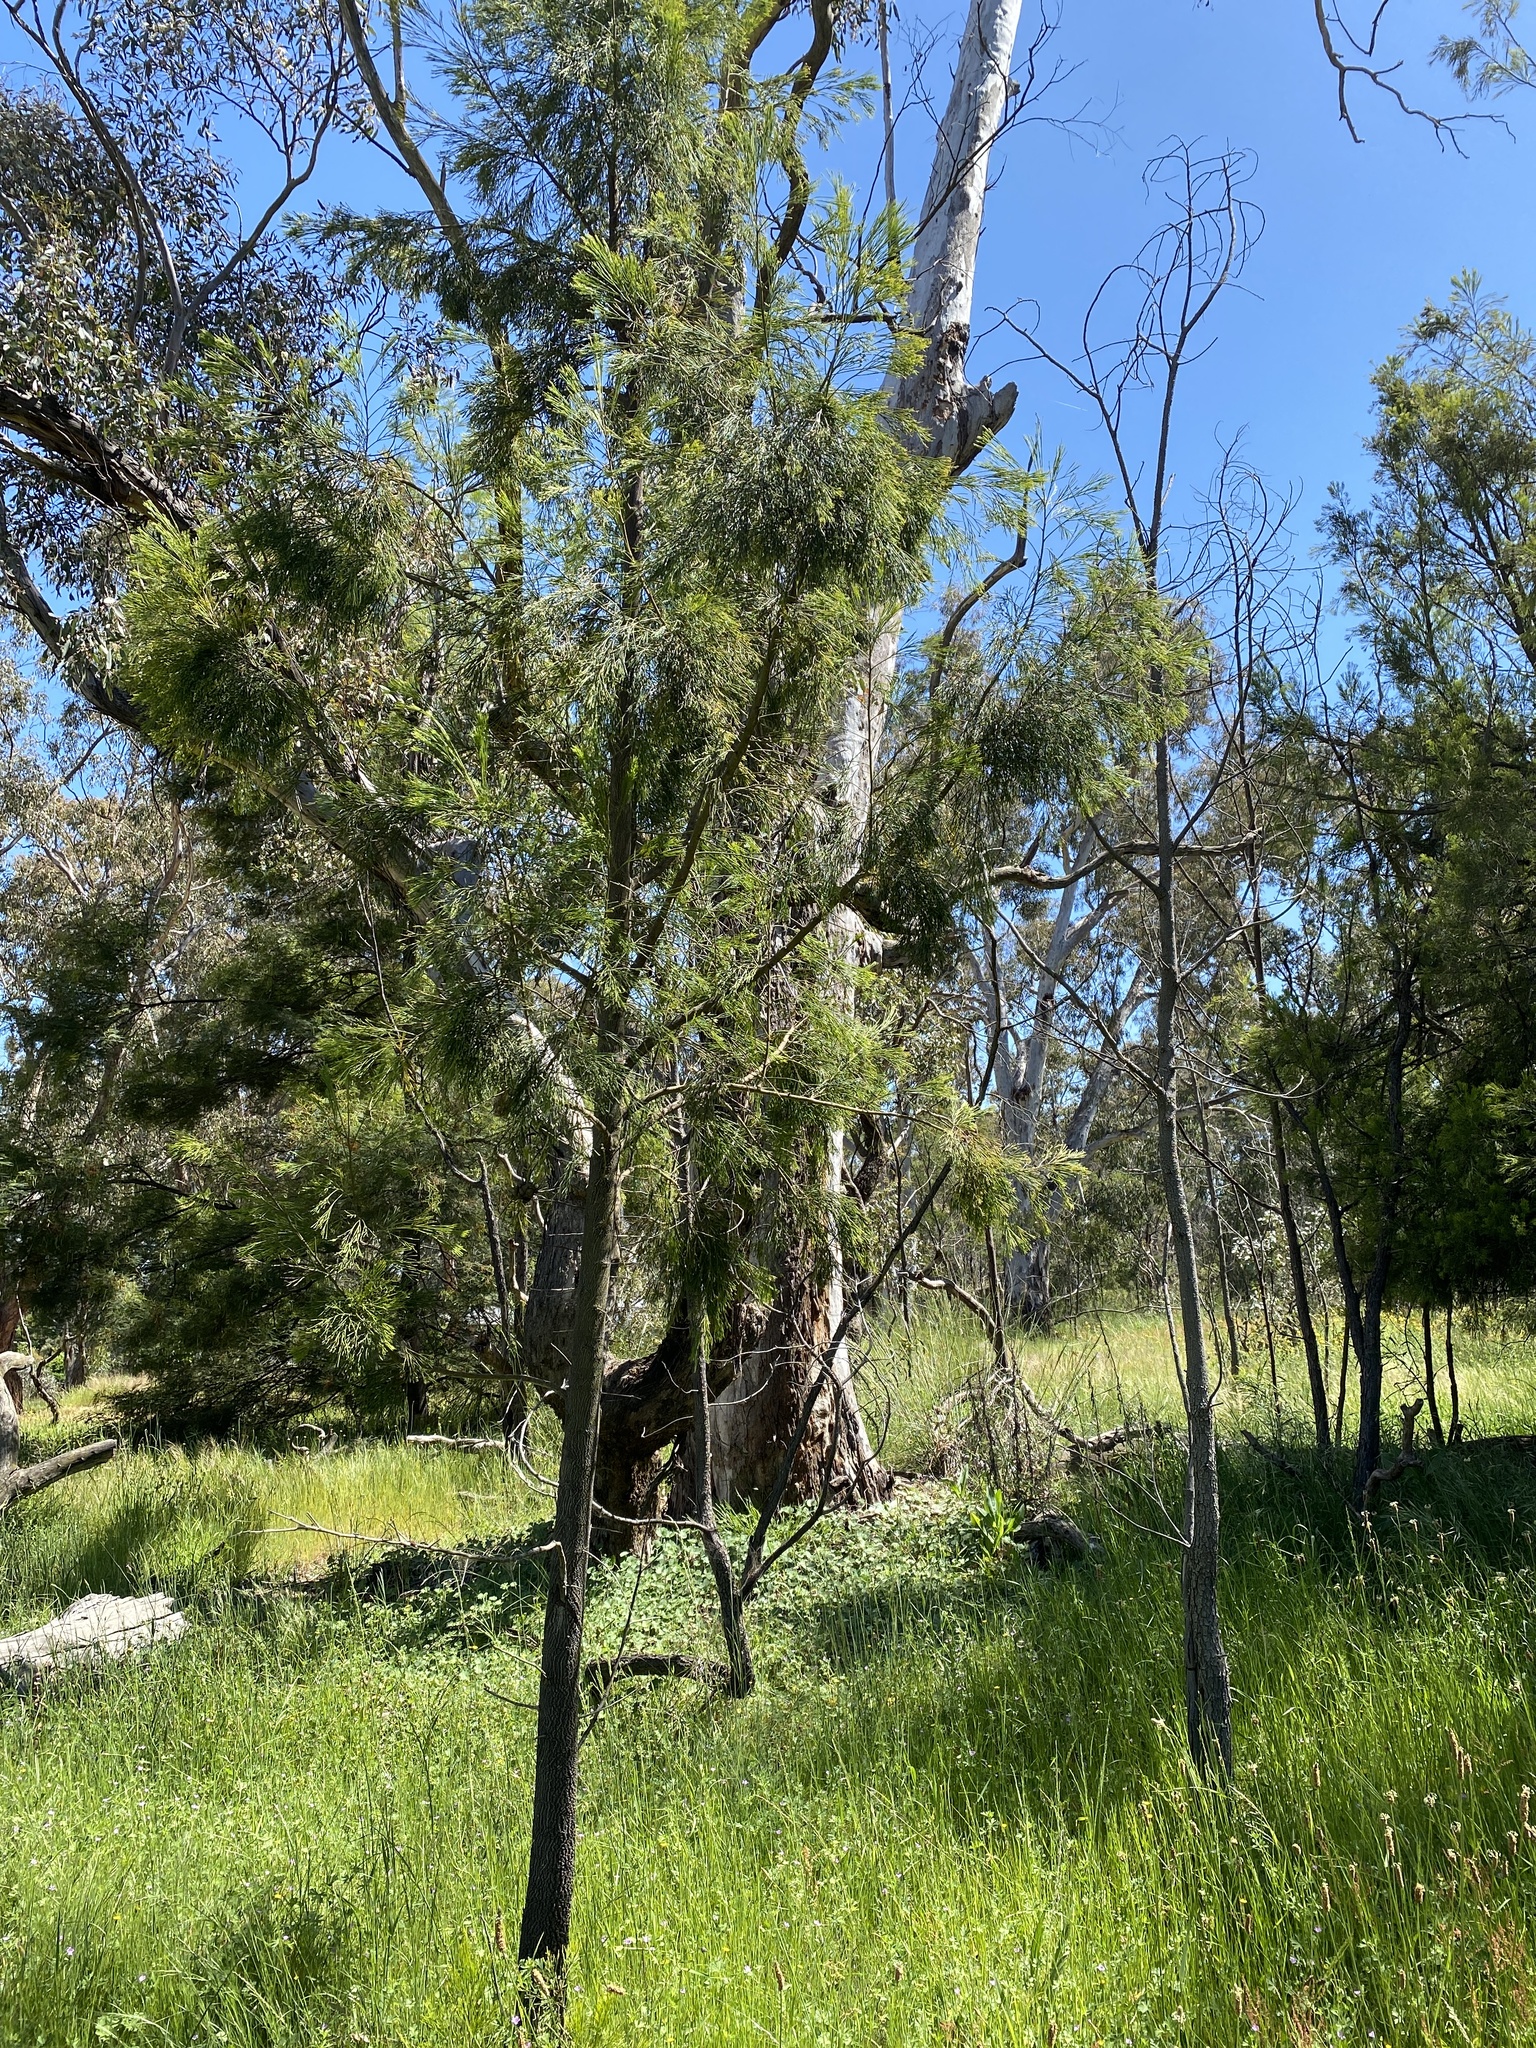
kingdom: Plantae
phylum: Tracheophyta
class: Magnoliopsida
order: Santalales
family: Santalaceae
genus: Exocarpos
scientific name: Exocarpos cupressiformis
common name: Cherry ballart
